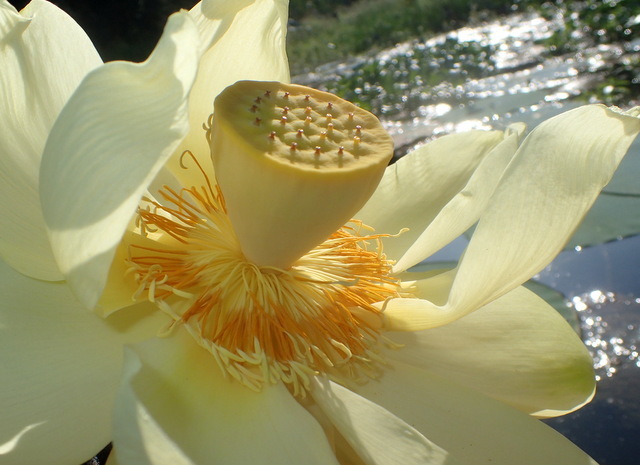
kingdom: Plantae
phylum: Tracheophyta
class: Magnoliopsida
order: Proteales
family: Nelumbonaceae
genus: Nelumbo
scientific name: Nelumbo lutea
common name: American lotus
